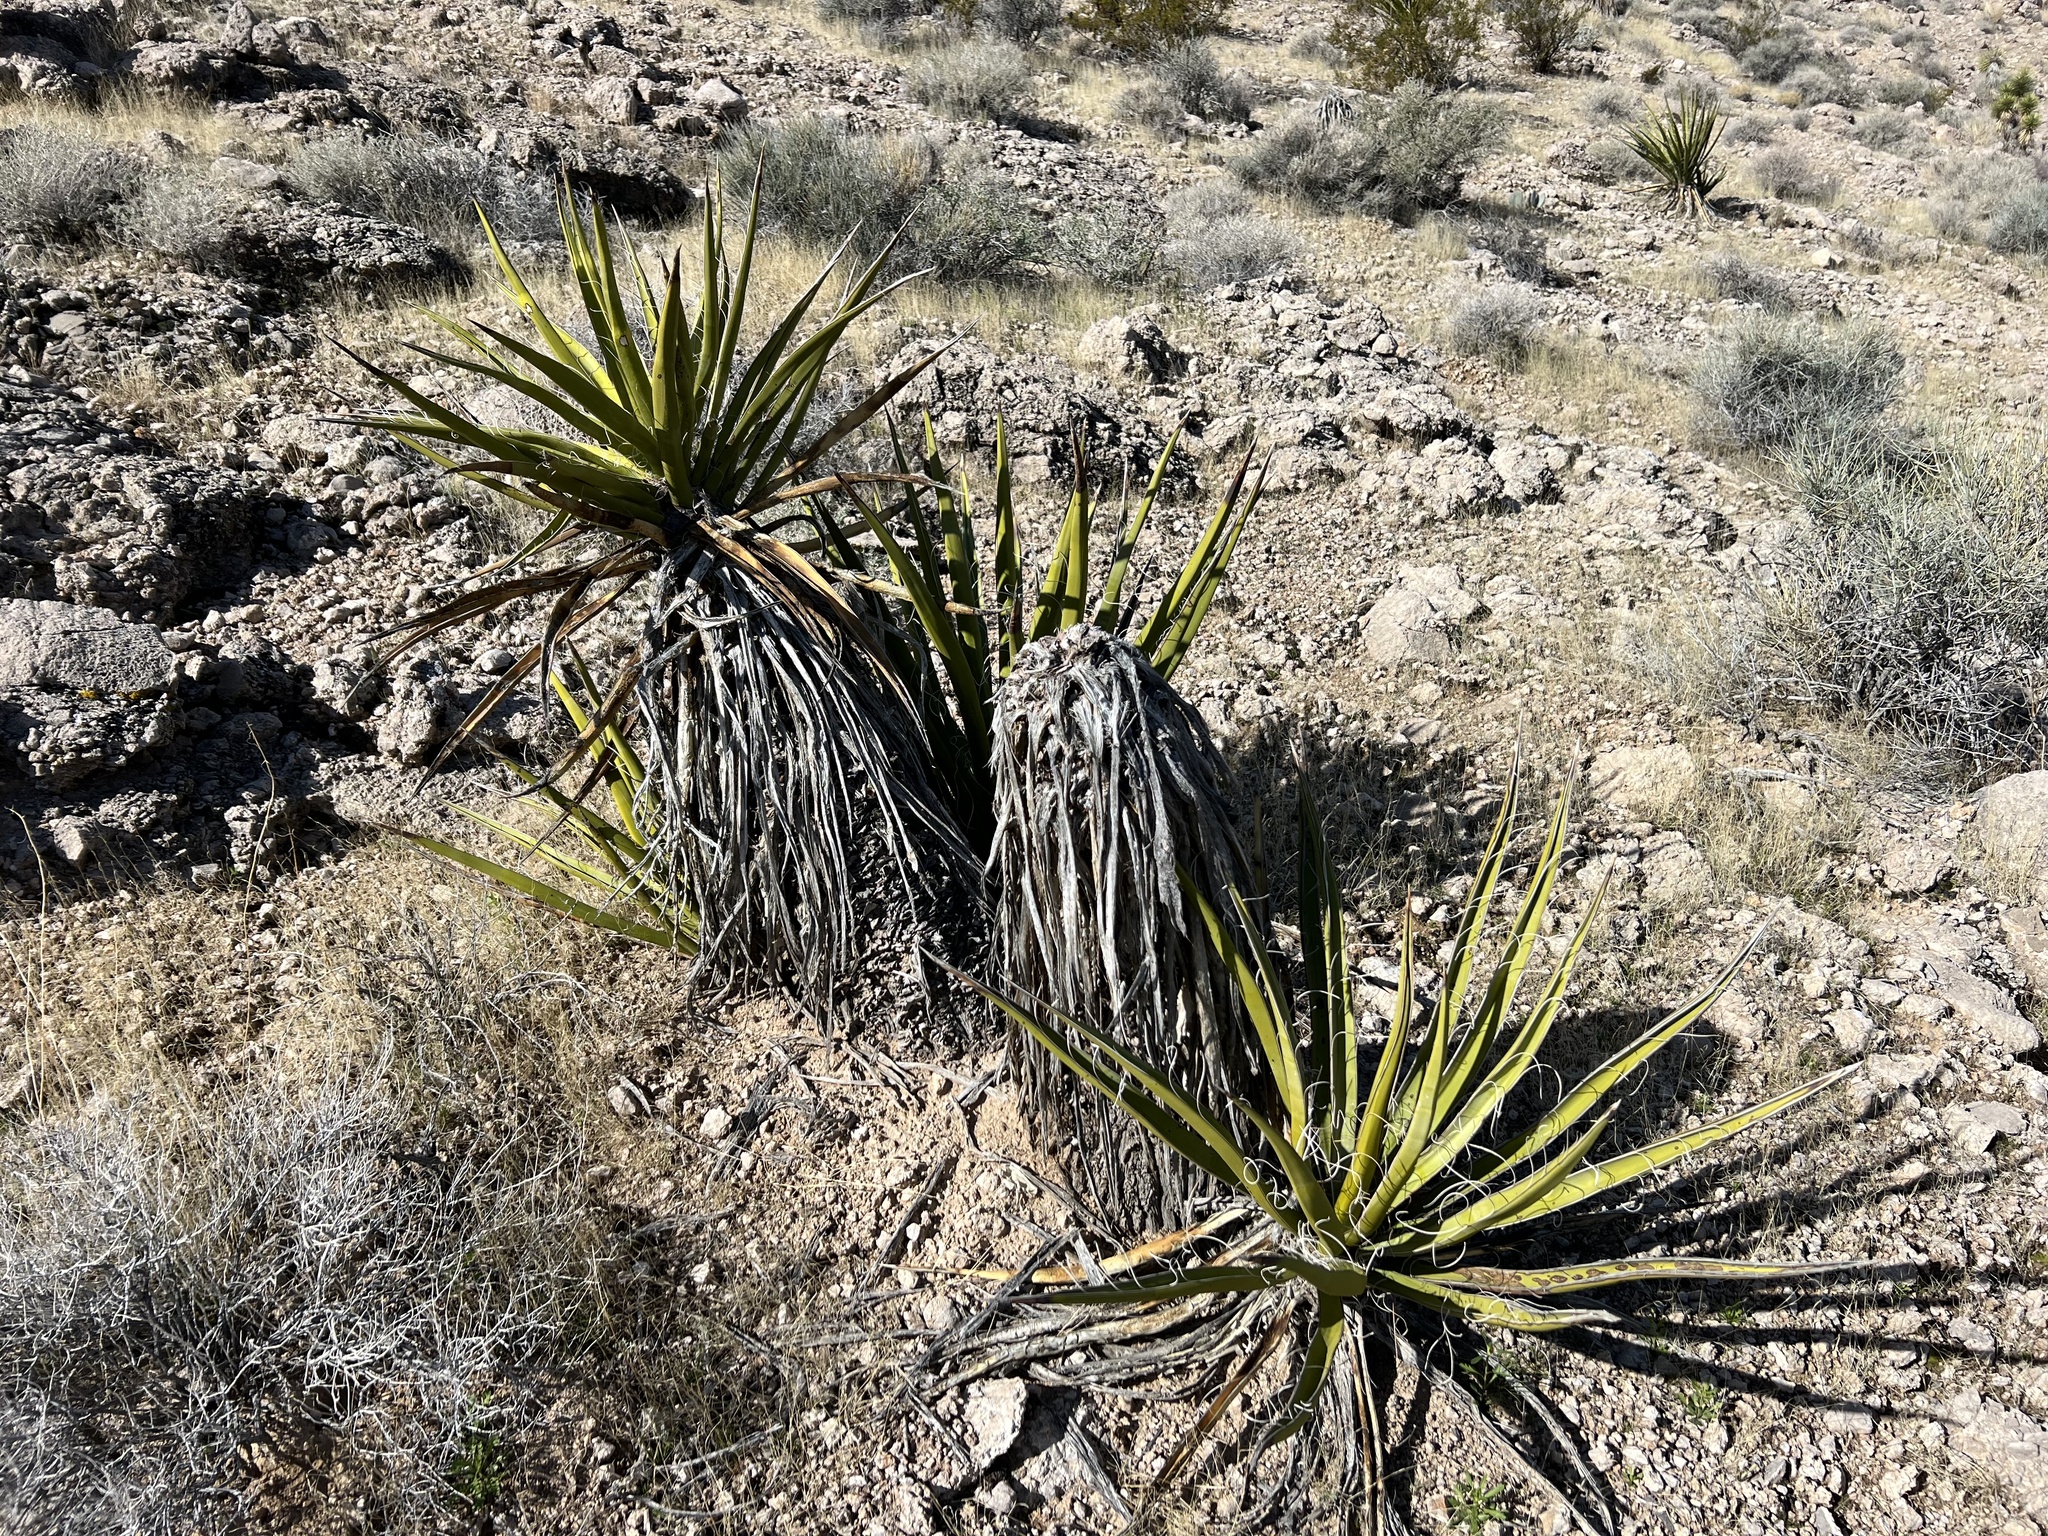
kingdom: Plantae
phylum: Tracheophyta
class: Liliopsida
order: Asparagales
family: Asparagaceae
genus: Yucca
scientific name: Yucca schidigera
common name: Mojave yucca
